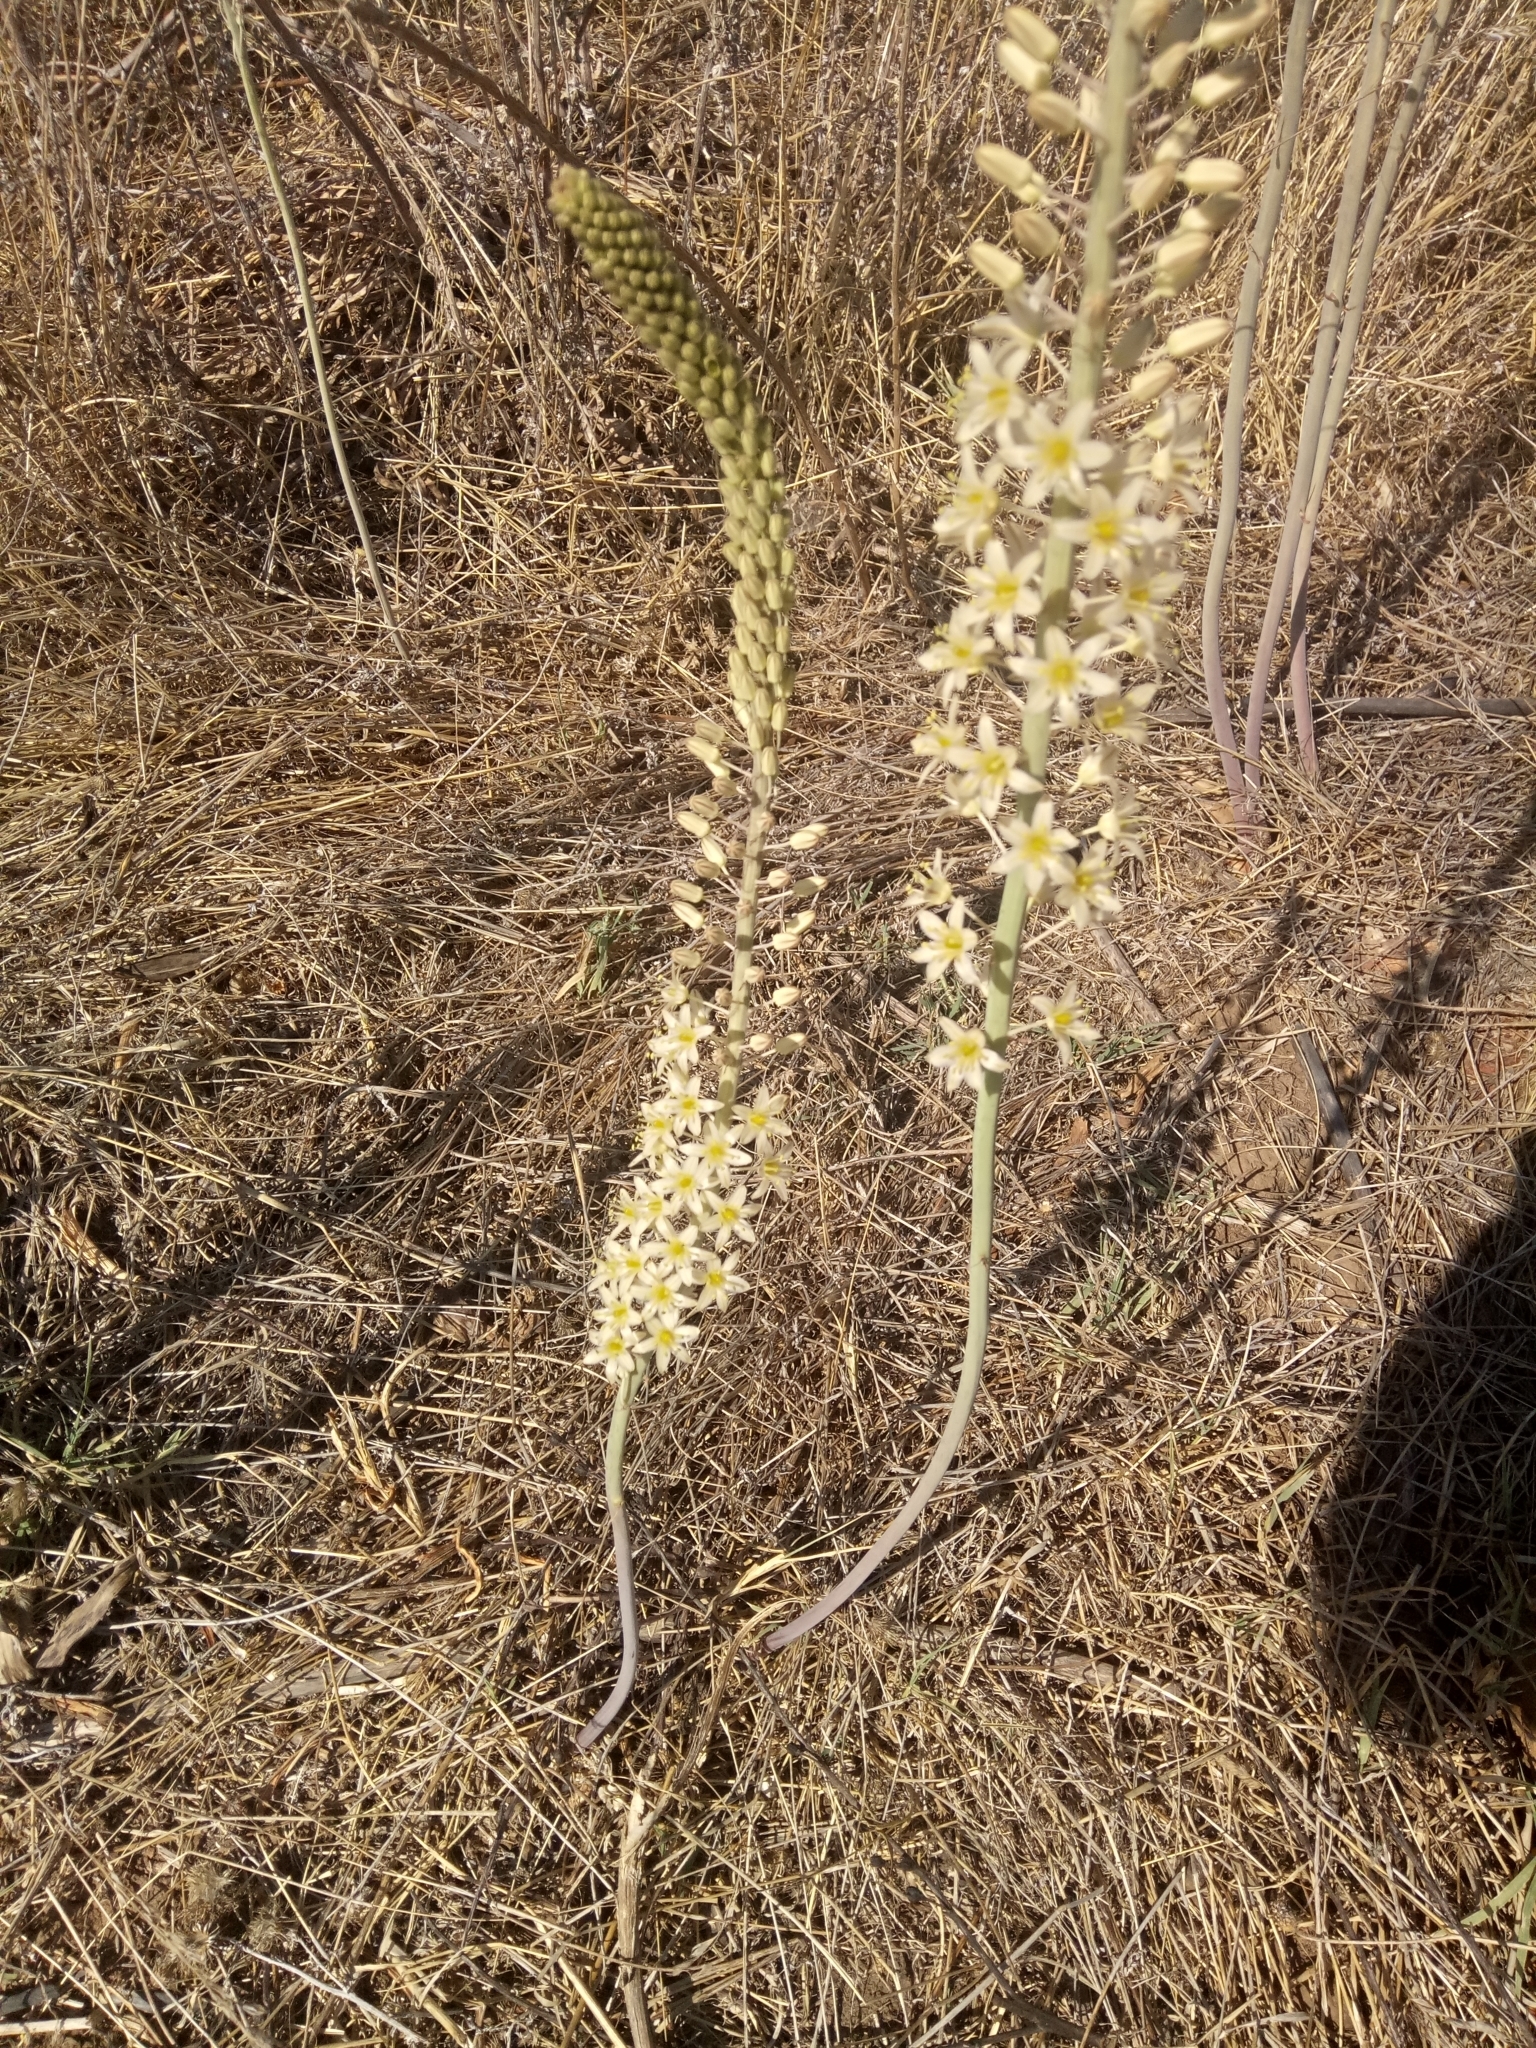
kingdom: Plantae
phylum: Tracheophyta
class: Liliopsida
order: Asparagales
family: Asparagaceae
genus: Drimia
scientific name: Drimia anthericoides
